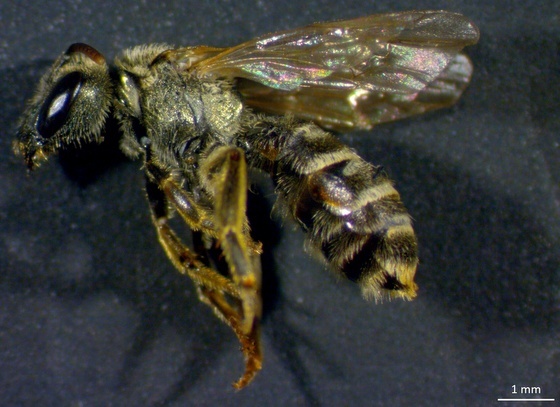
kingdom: Animalia
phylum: Arthropoda
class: Insecta
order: Hymenoptera
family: Halictidae
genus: Halictus
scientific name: Halictus confusus
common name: Southern bronze furrow bee
